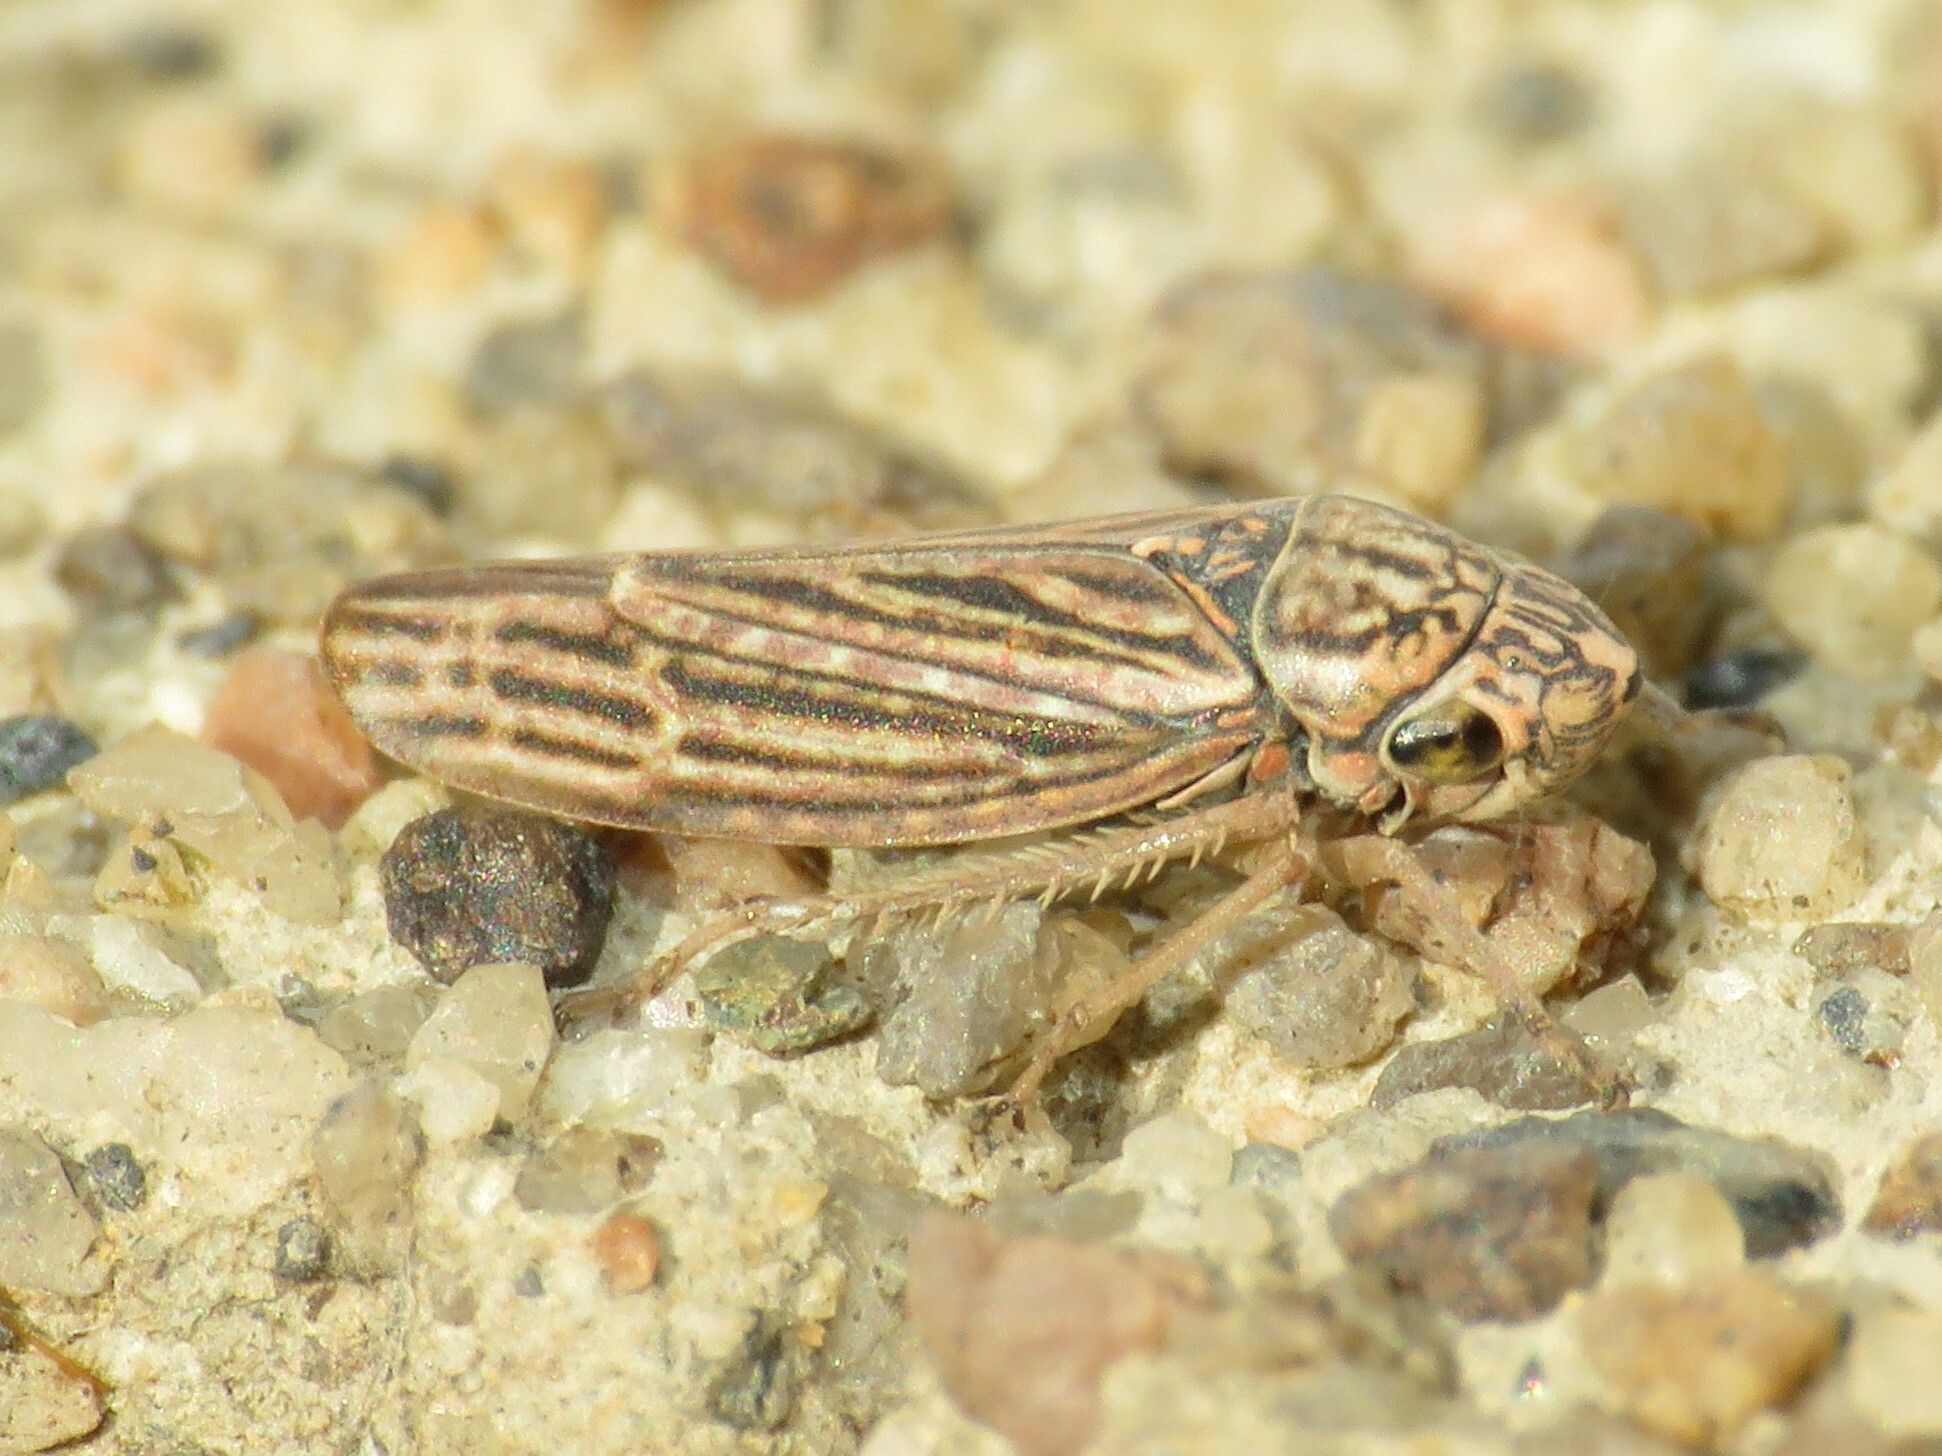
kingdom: Animalia
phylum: Arthropoda
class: Insecta
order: Hemiptera
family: Cicadellidae
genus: Neokolla
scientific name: Neokolla hieroglyphica
